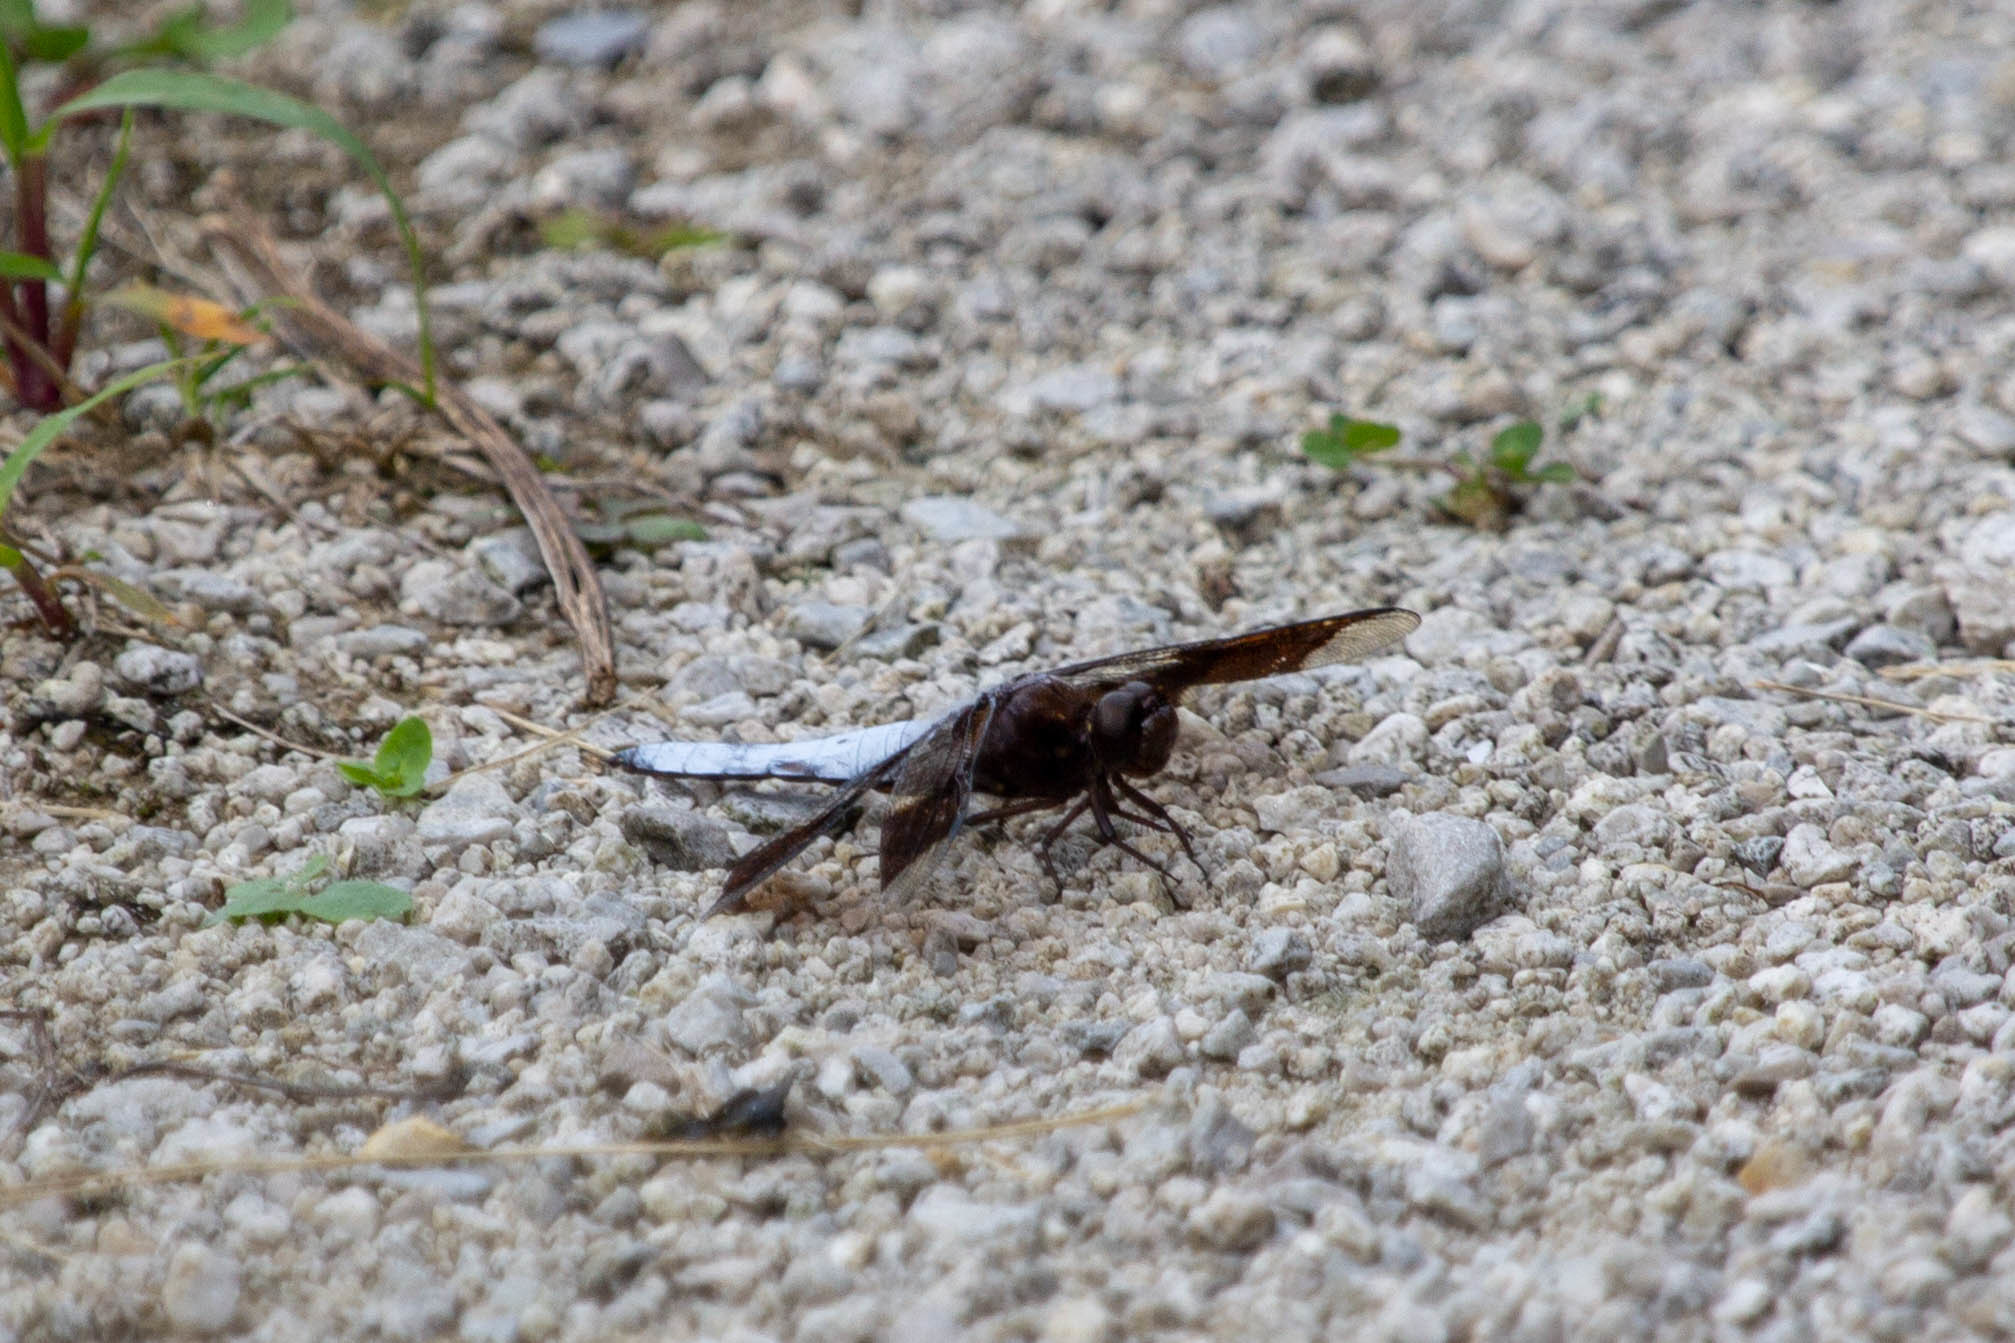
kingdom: Animalia
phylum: Arthropoda
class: Insecta
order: Odonata
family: Libellulidae
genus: Plathemis
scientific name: Plathemis lydia
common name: Common whitetail
